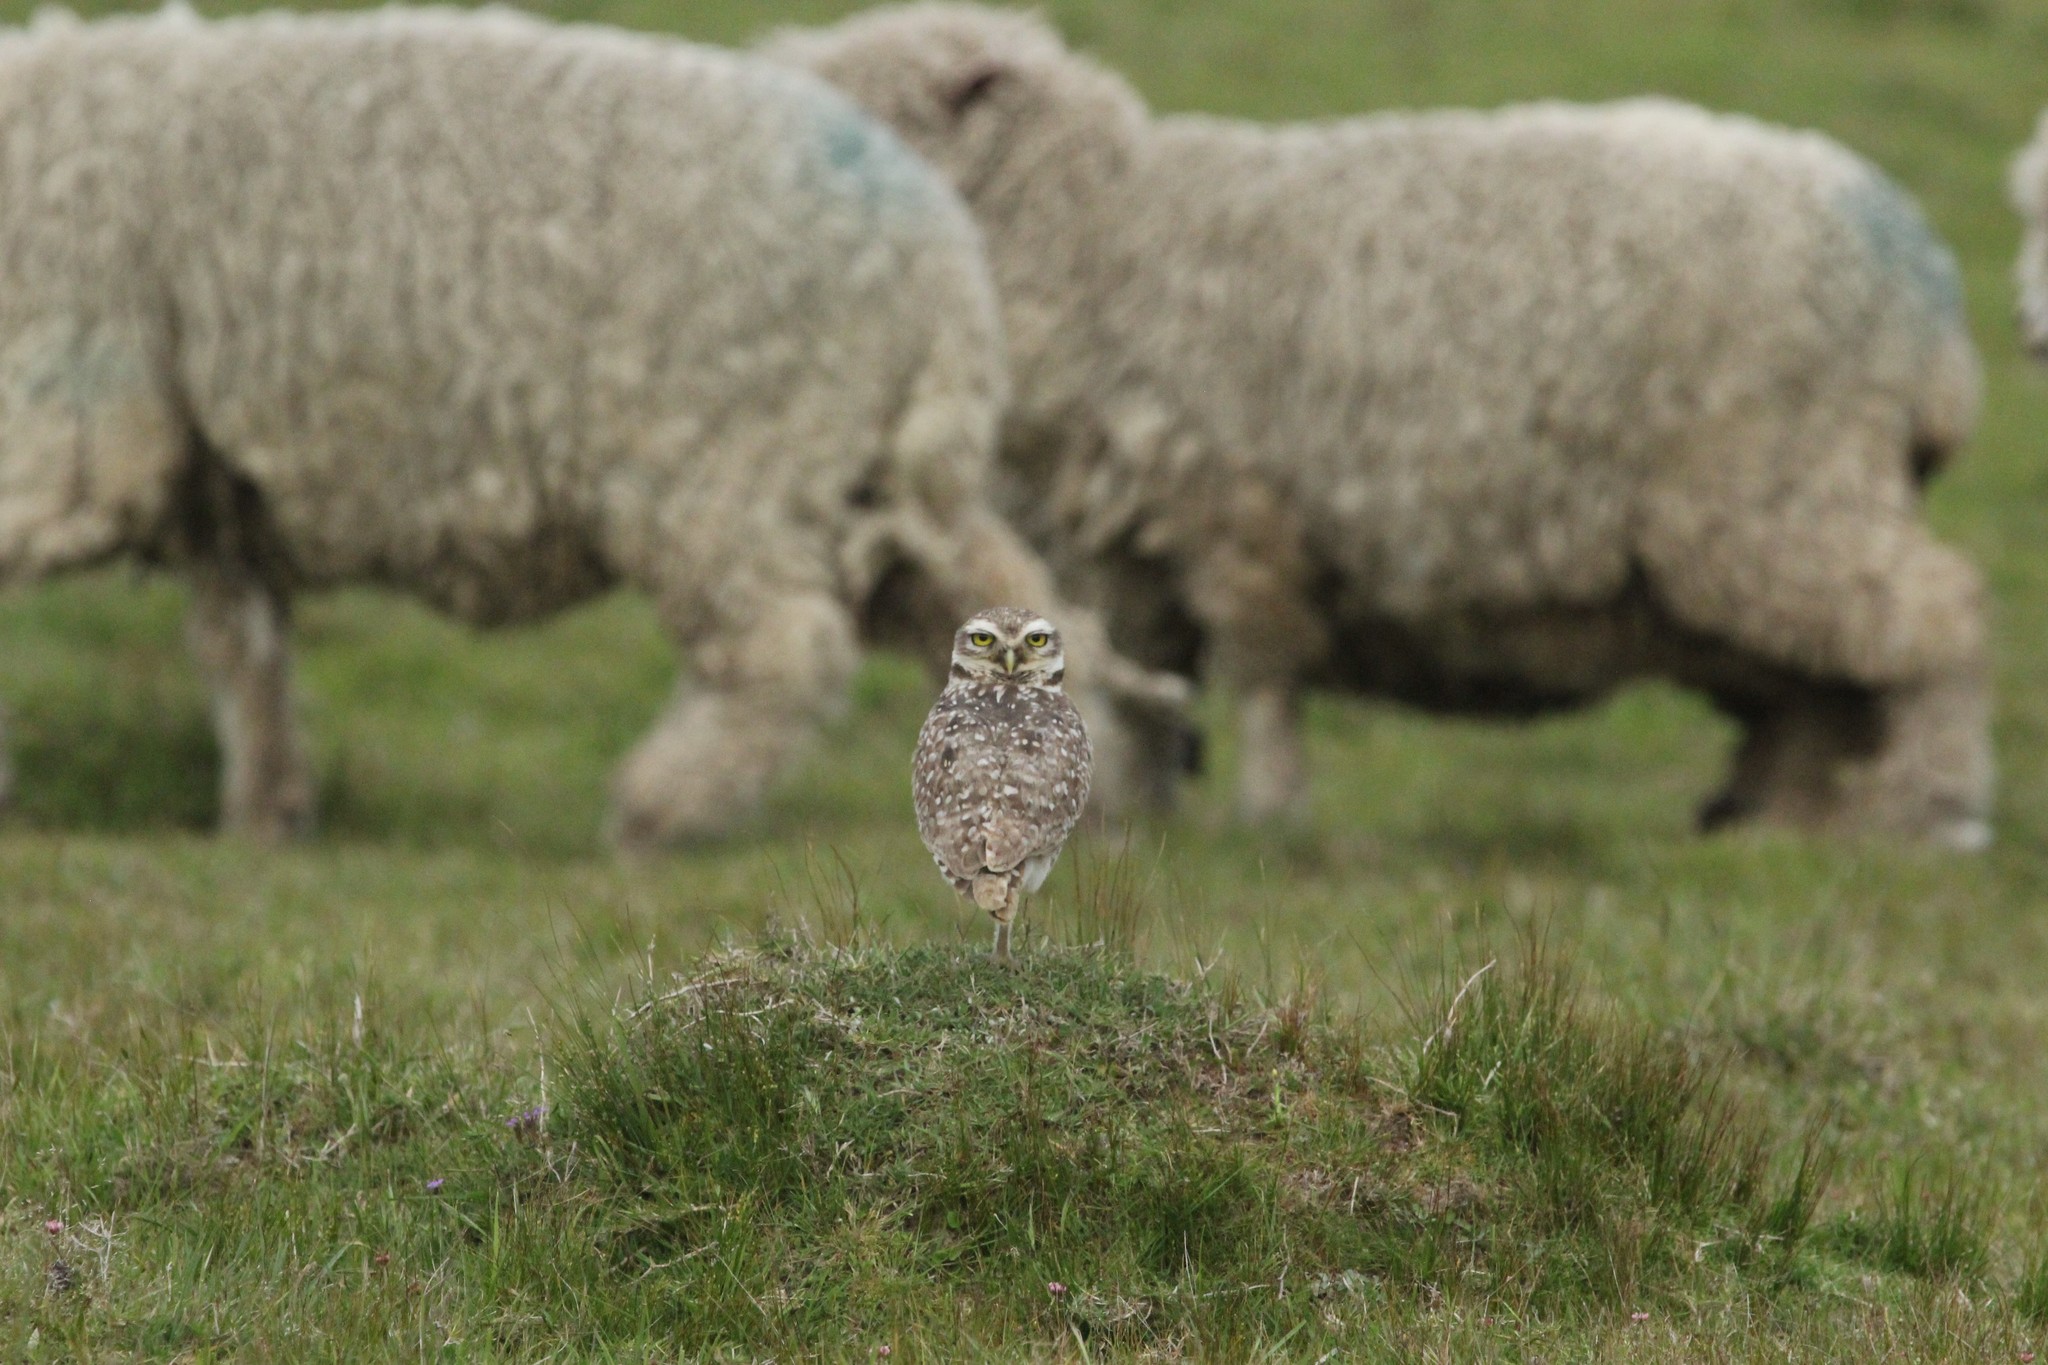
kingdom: Animalia
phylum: Chordata
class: Aves
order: Strigiformes
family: Strigidae
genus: Athene
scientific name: Athene cunicularia
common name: Burrowing owl
